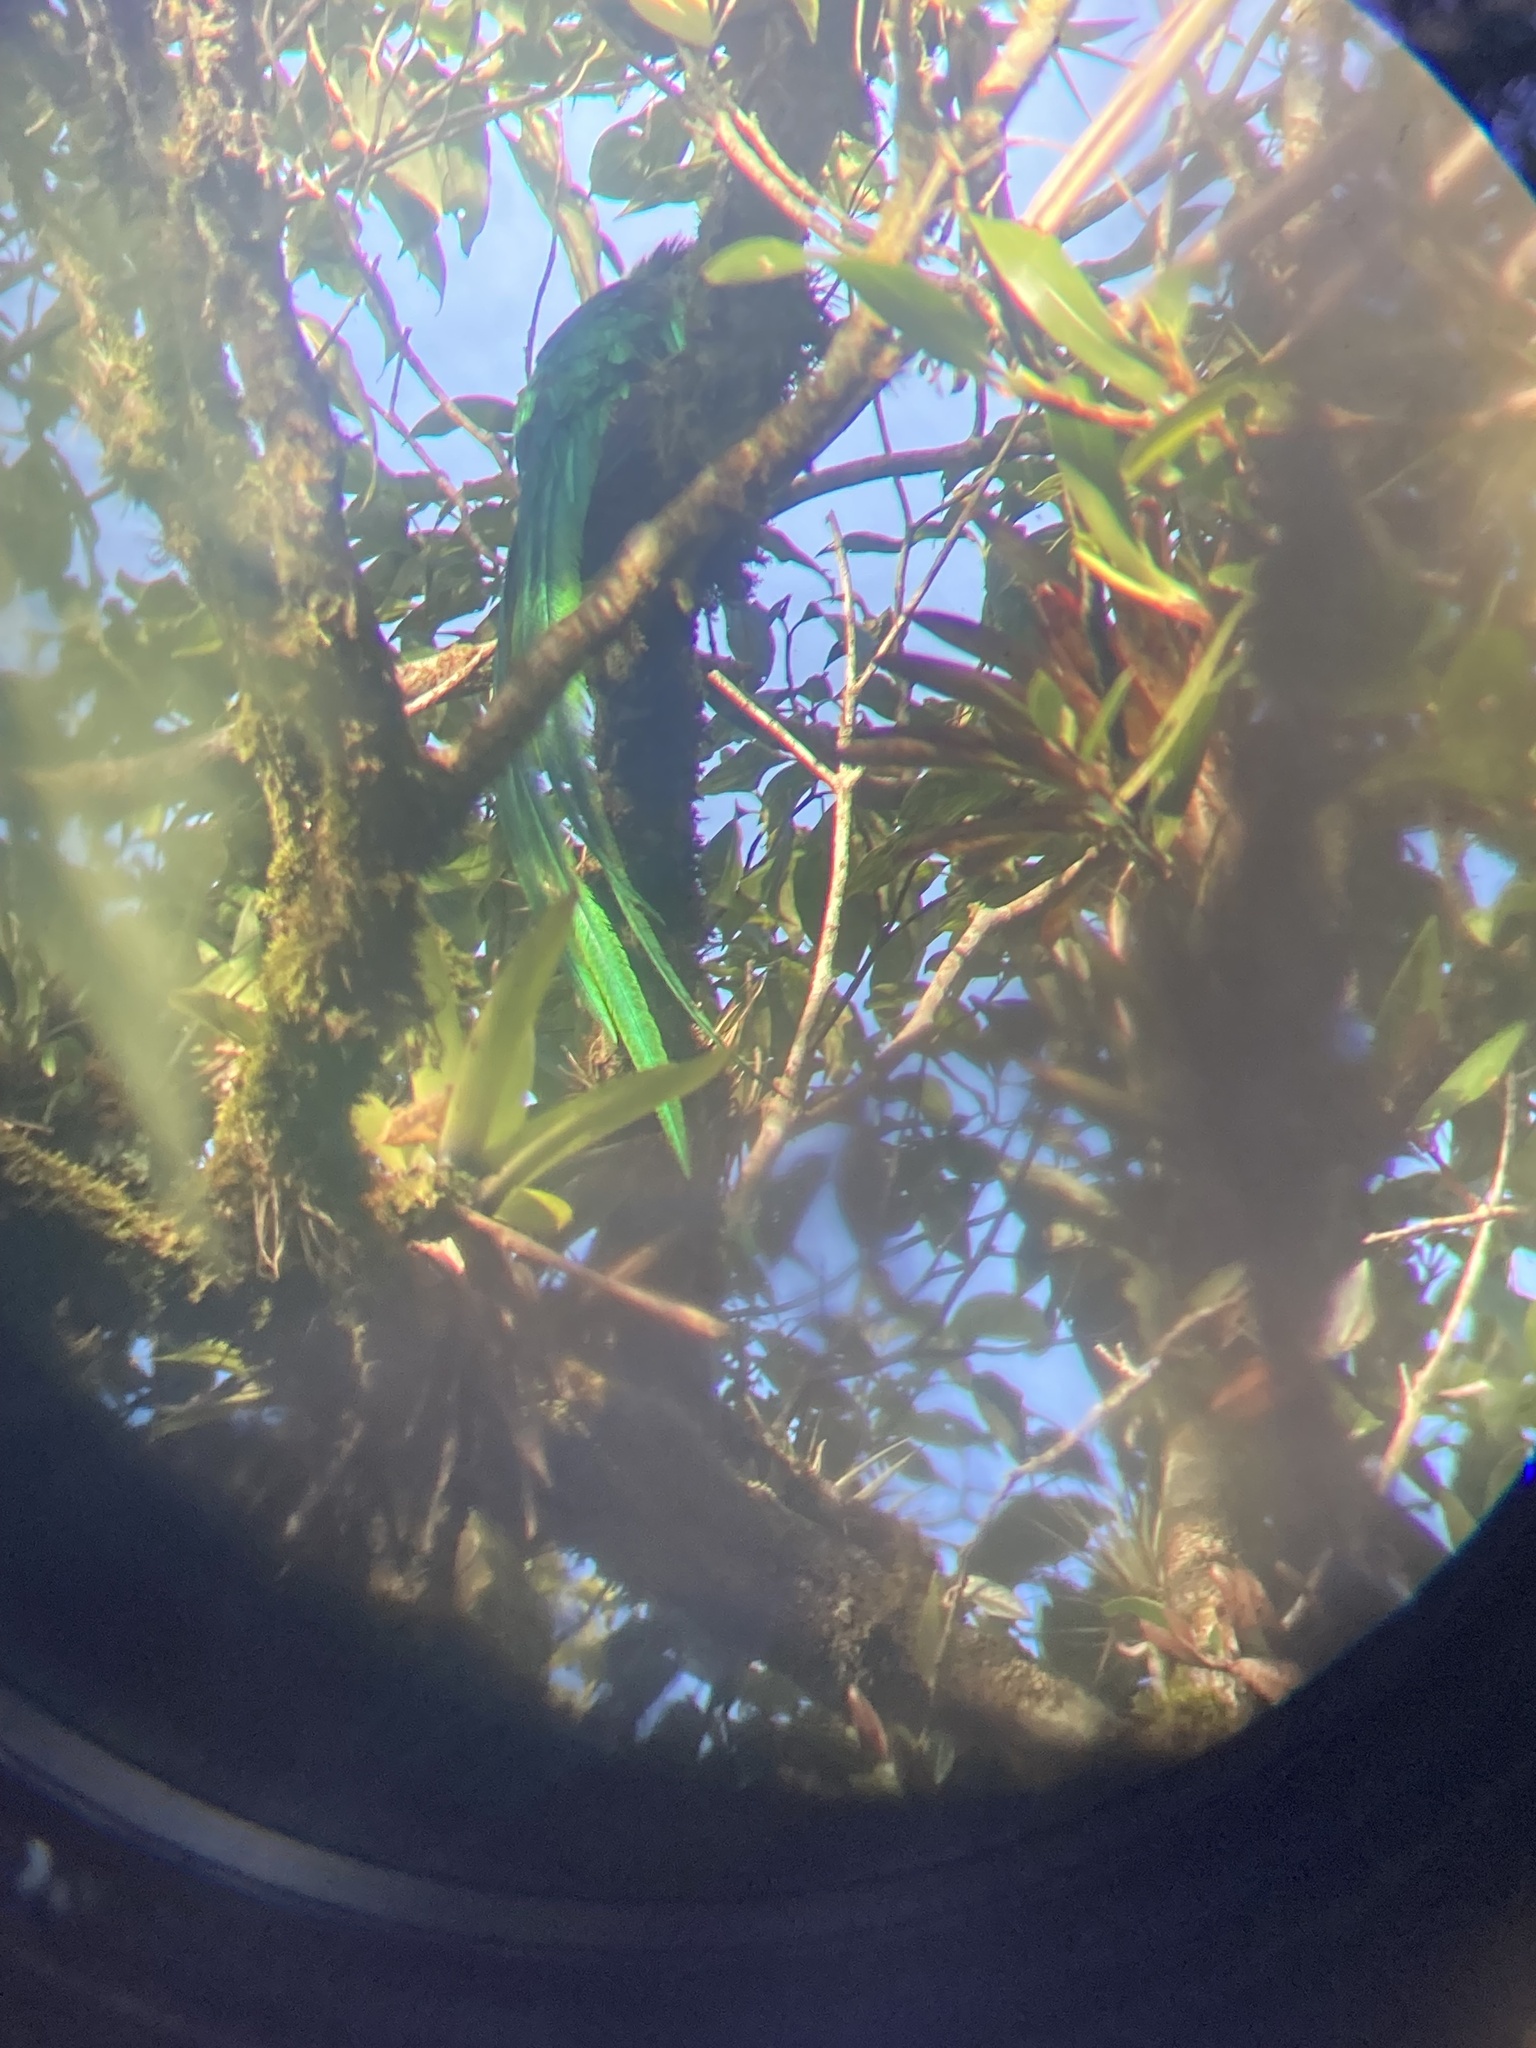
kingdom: Animalia
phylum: Chordata
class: Aves
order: Trogoniformes
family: Trogonidae
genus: Pharomachrus
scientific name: Pharomachrus mocinno
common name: Resplendent quetzal
